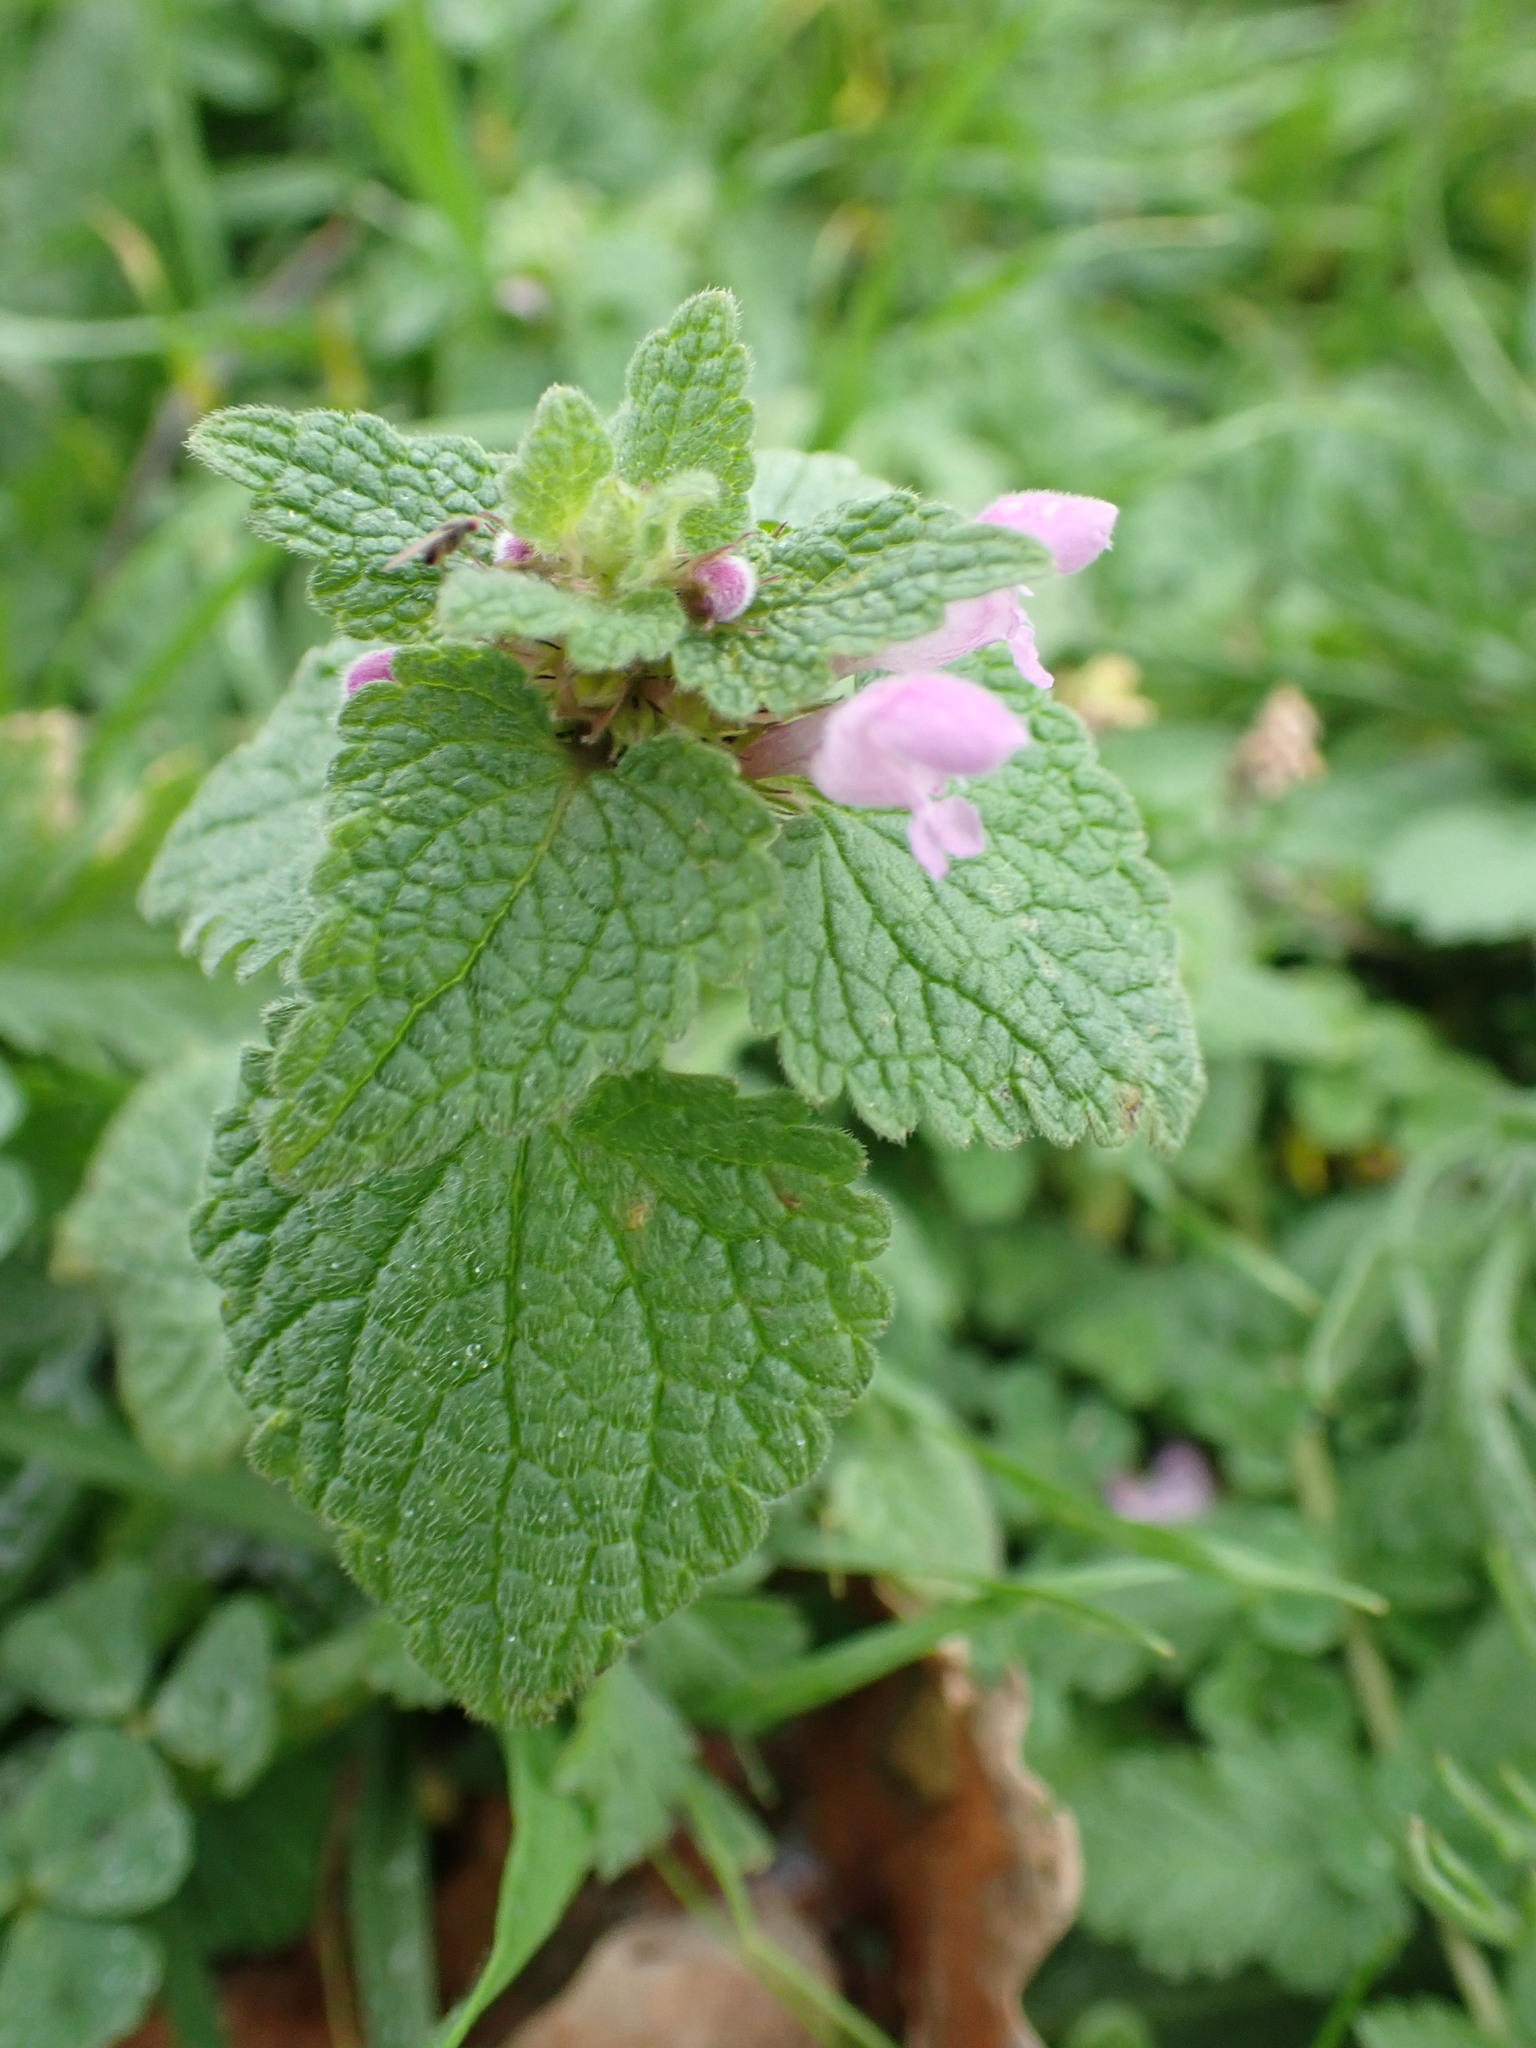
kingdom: Plantae
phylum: Tracheophyta
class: Magnoliopsida
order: Lamiales
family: Lamiaceae
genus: Lamium
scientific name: Lamium purpureum
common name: Red dead-nettle
